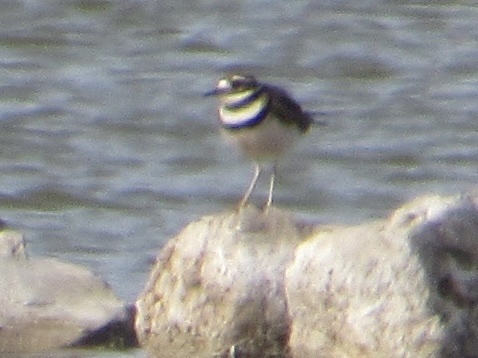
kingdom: Animalia
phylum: Chordata
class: Aves
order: Charadriiformes
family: Charadriidae
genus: Charadrius
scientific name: Charadrius vociferus
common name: Killdeer
